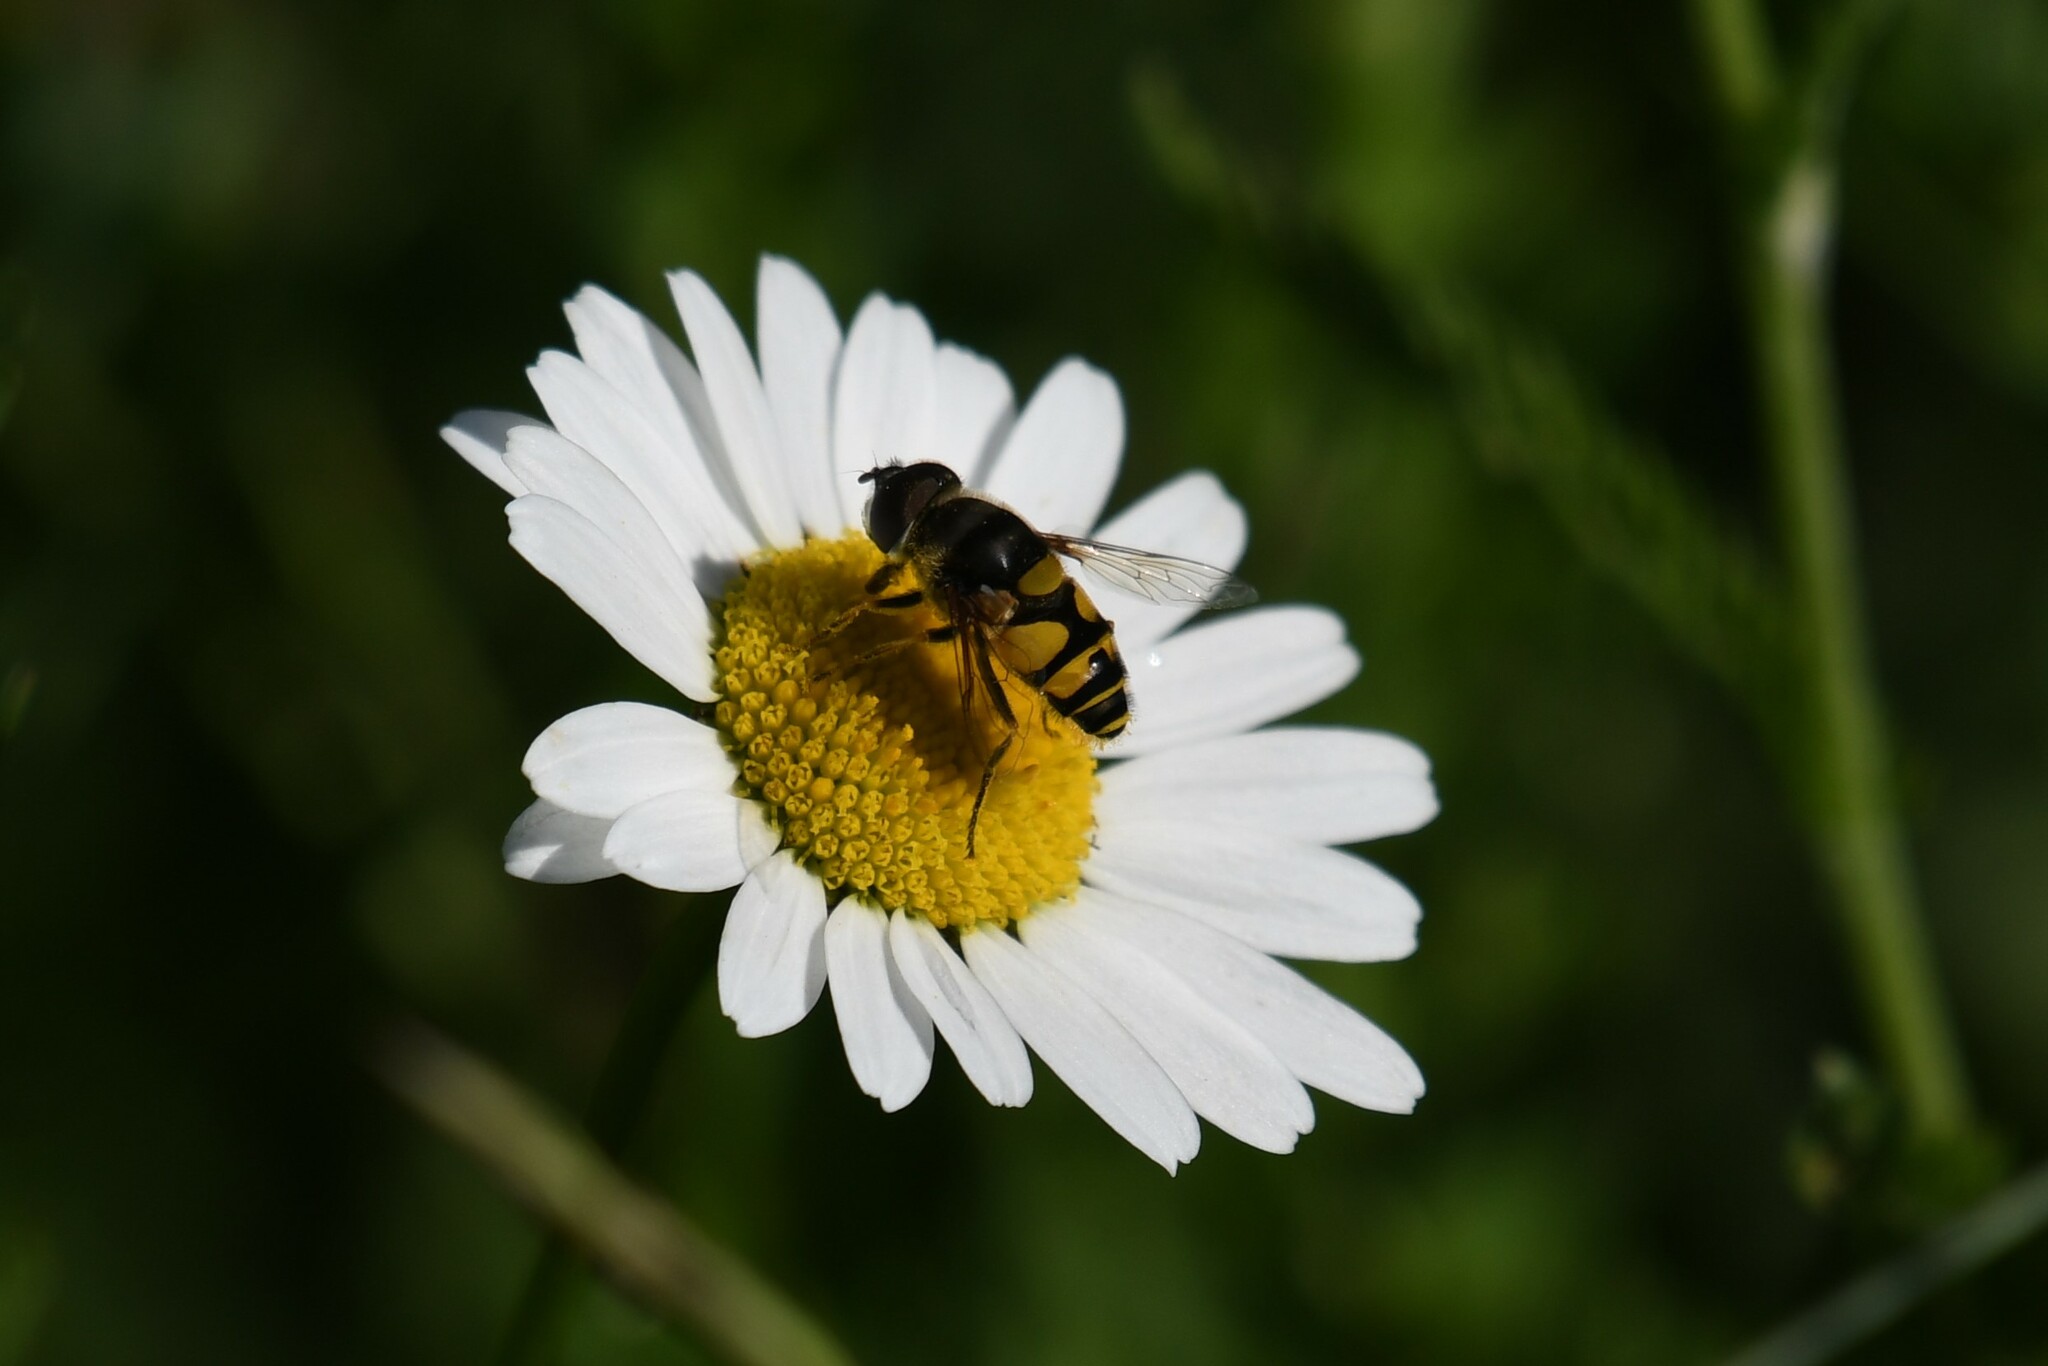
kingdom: Animalia
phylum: Arthropoda
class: Insecta
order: Diptera
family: Syrphidae
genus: Eristalis
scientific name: Eristalis transversa
